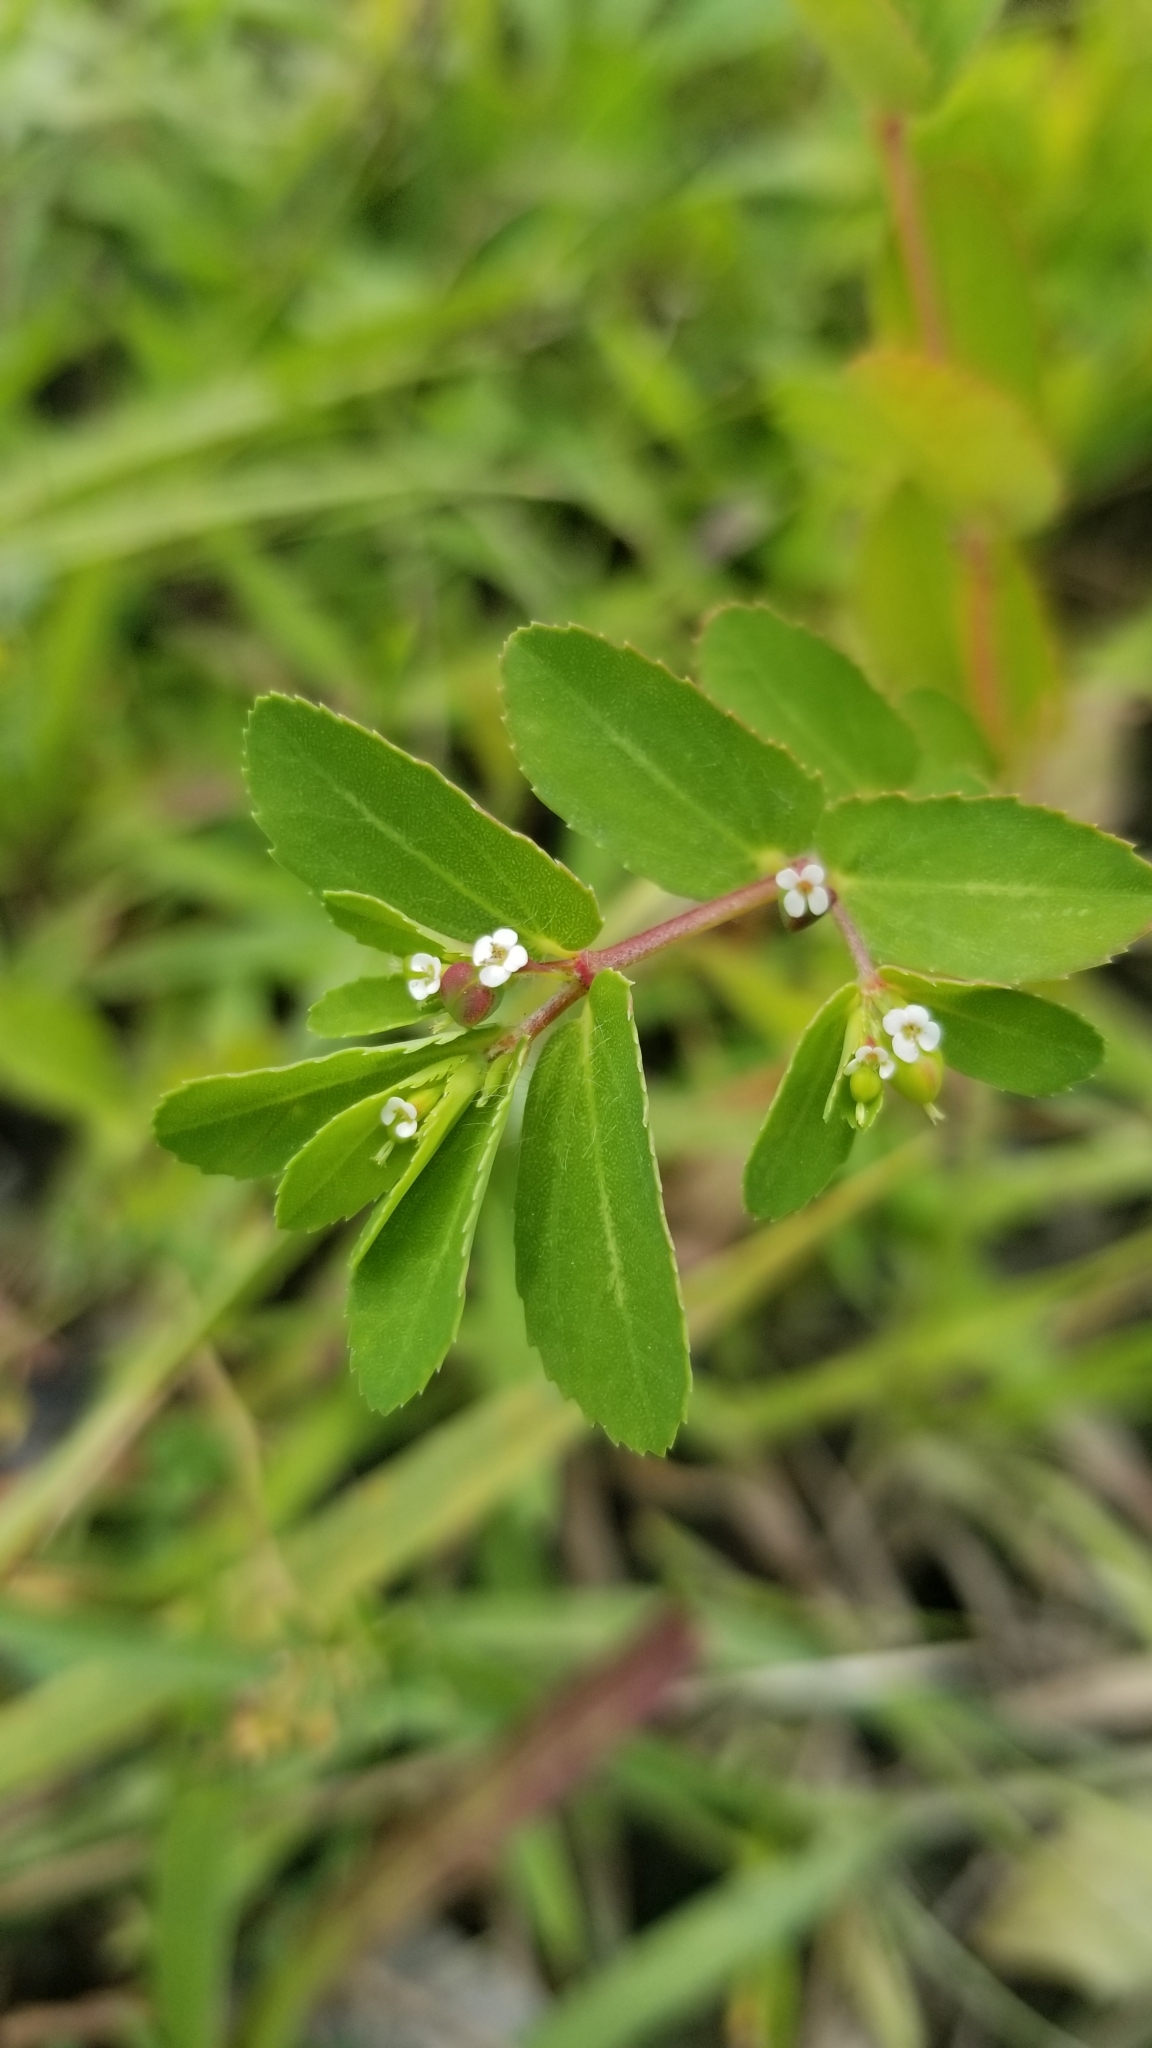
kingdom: Plantae
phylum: Tracheophyta
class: Magnoliopsida
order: Malpighiales
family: Euphorbiaceae
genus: Euphorbia
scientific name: Euphorbia nutans
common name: Eyebane
